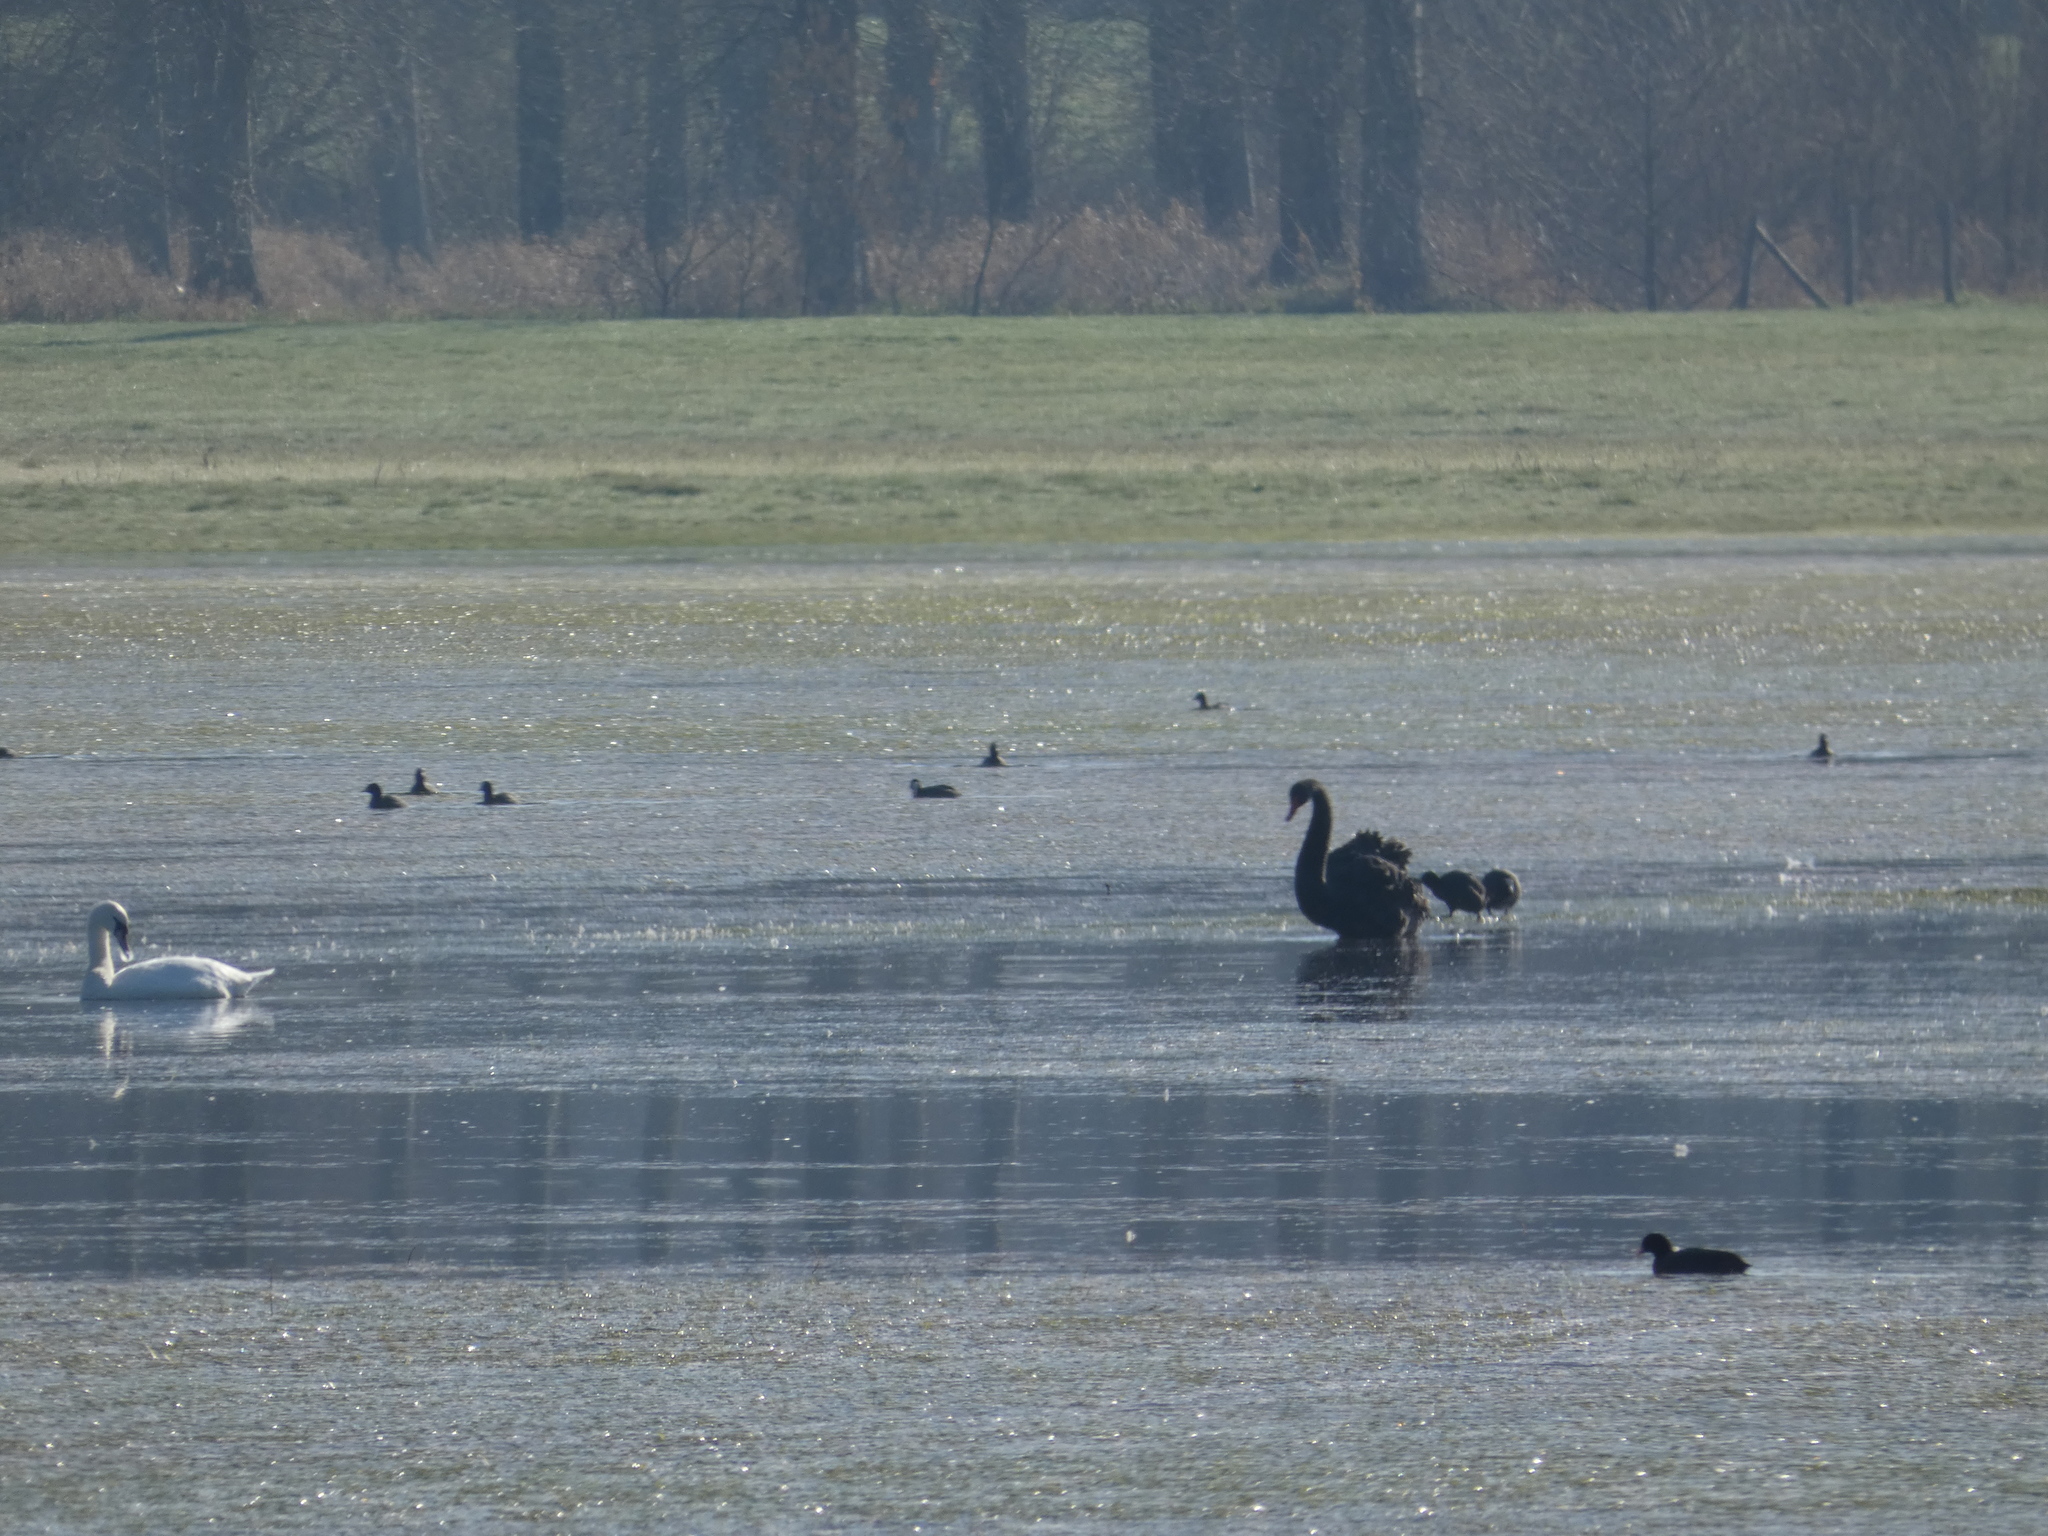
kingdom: Animalia
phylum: Chordata
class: Aves
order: Anseriformes
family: Anatidae
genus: Cygnus
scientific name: Cygnus atratus
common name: Black swan
